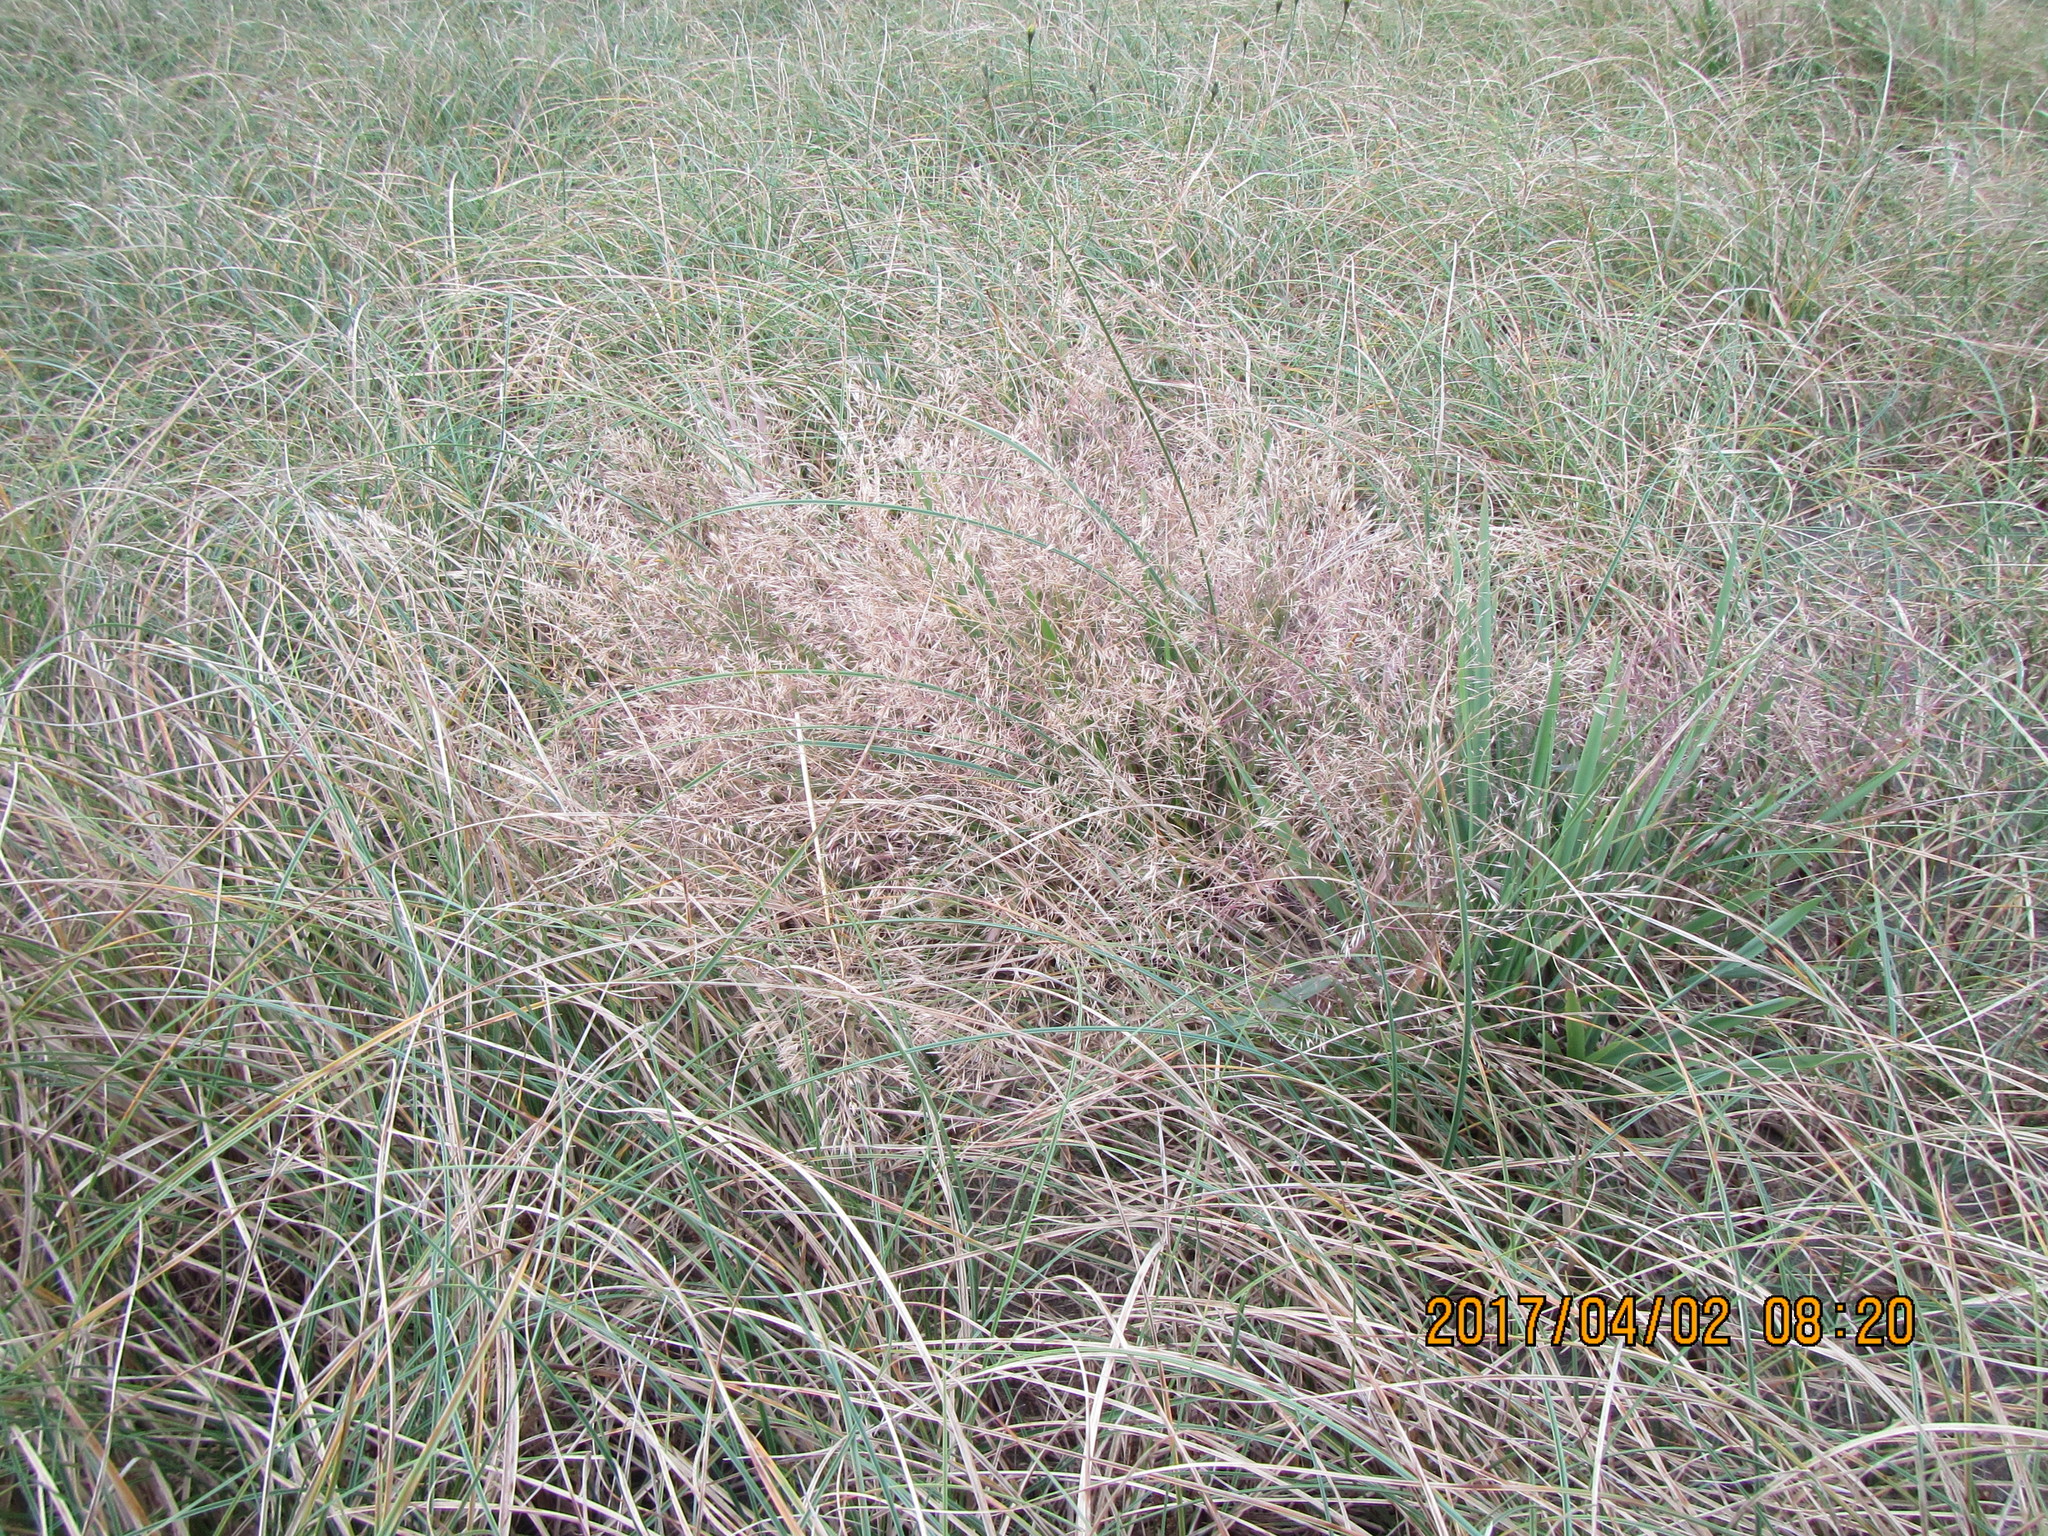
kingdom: Plantae
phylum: Tracheophyta
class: Liliopsida
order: Poales
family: Poaceae
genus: Lachnagrostis
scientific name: Lachnagrostis billardierei
